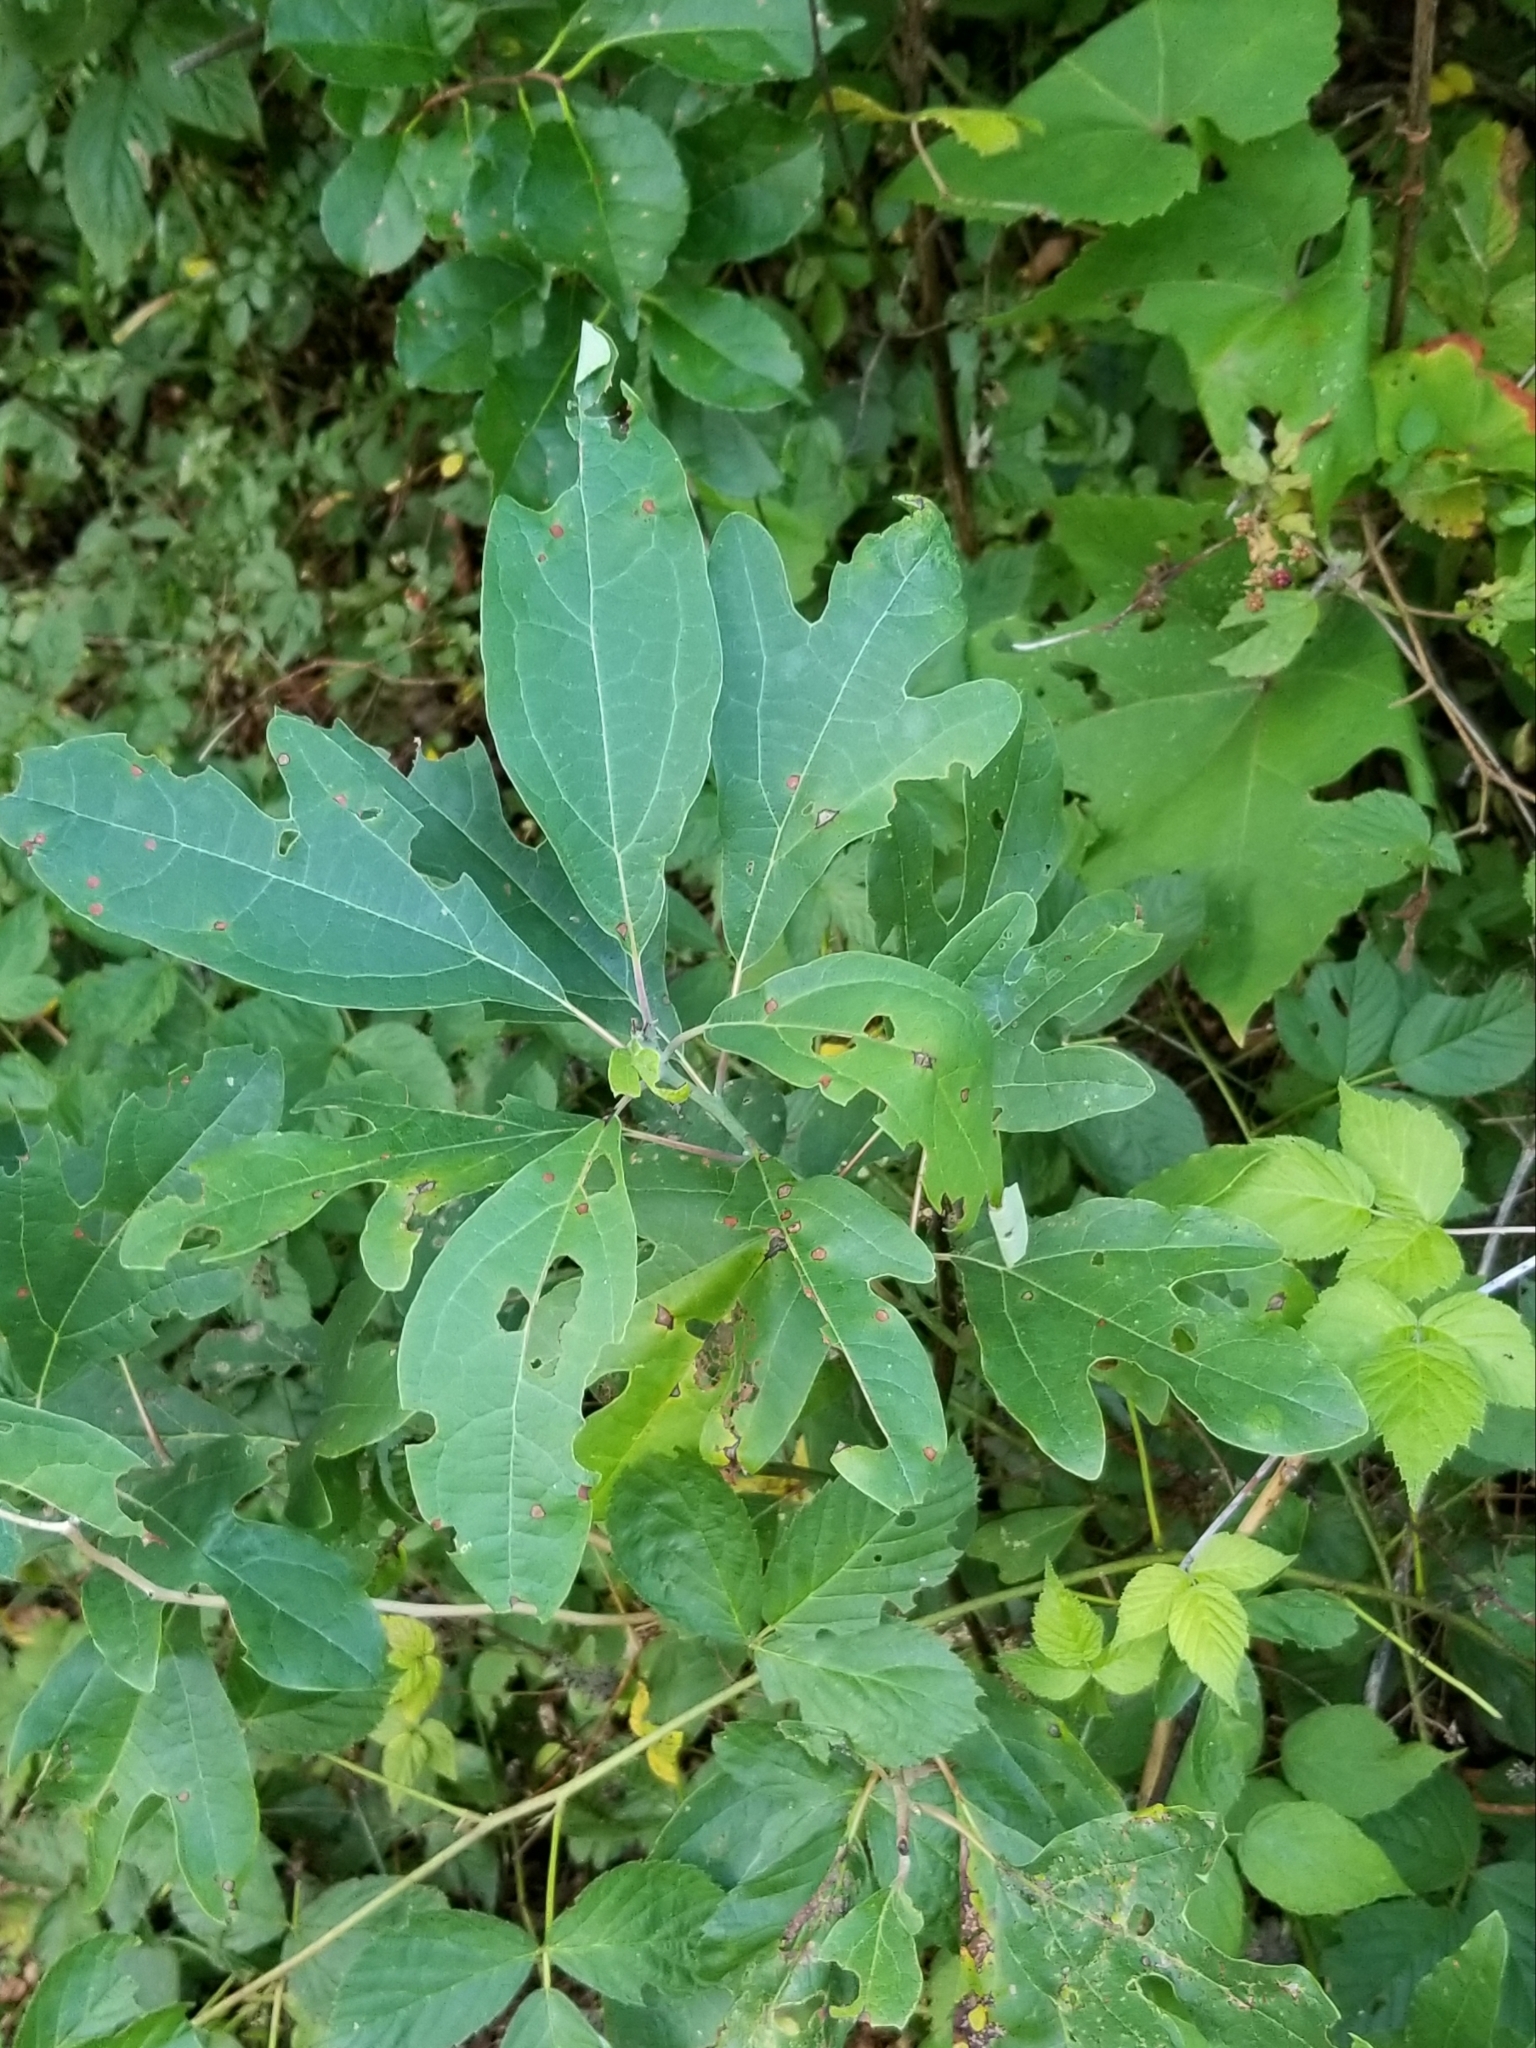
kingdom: Plantae
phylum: Tracheophyta
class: Magnoliopsida
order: Laurales
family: Lauraceae
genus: Sassafras
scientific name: Sassafras albidum
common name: Sassafras
